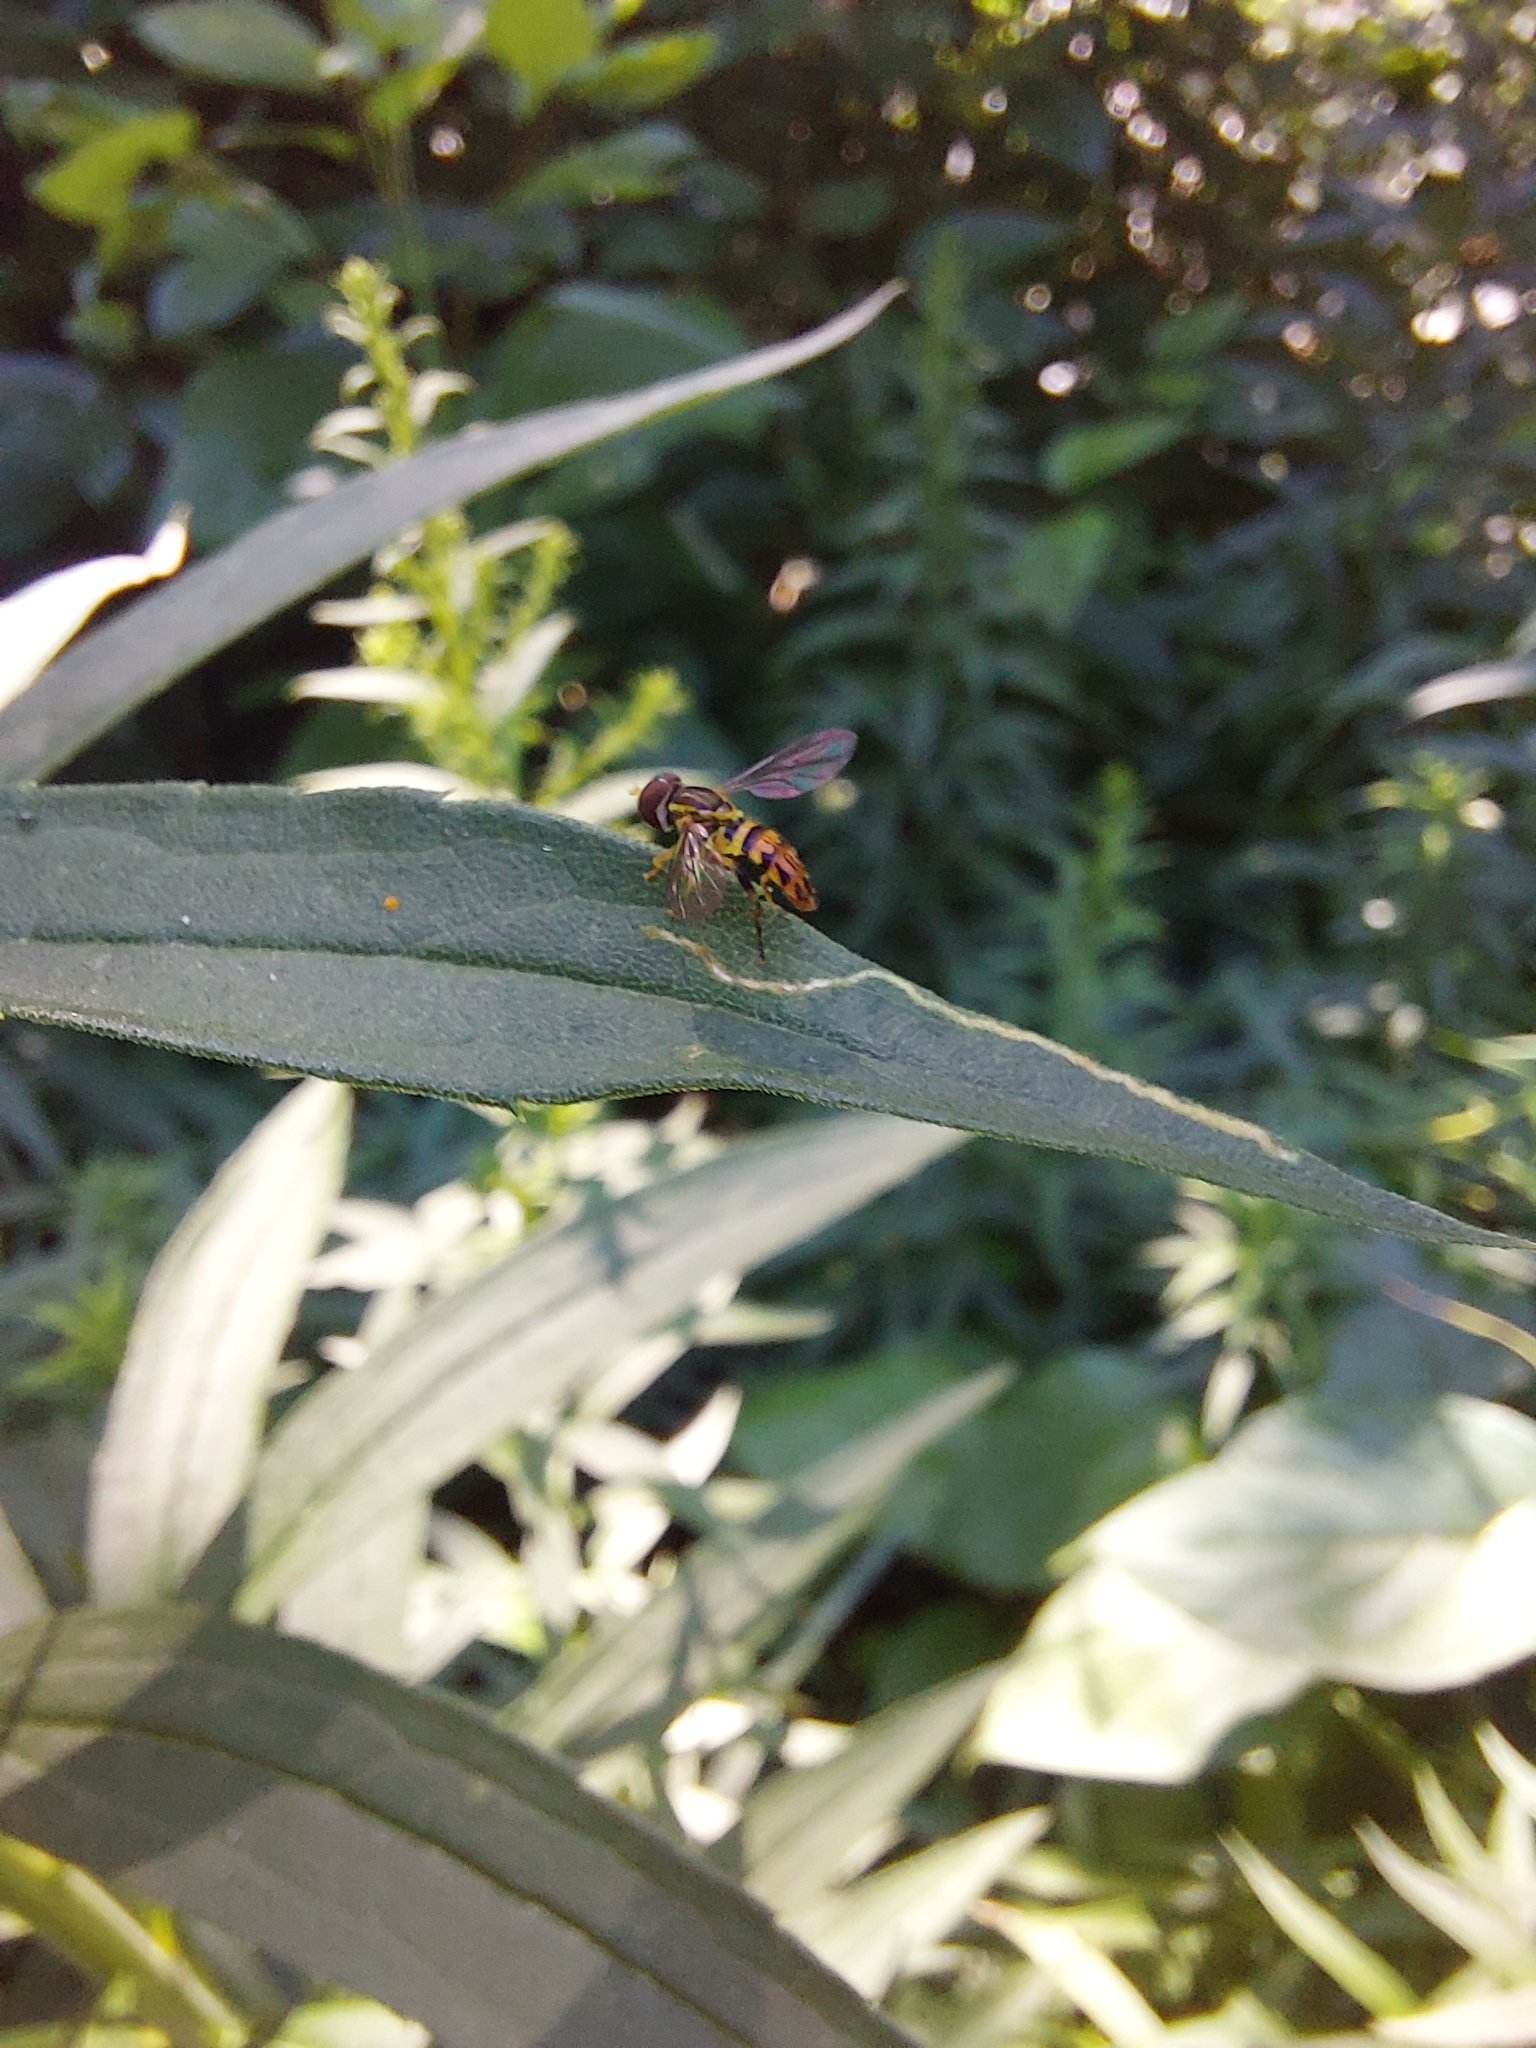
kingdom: Animalia
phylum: Arthropoda
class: Insecta
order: Diptera
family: Syrphidae
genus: Toxomerus
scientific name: Toxomerus geminatus
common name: Eastern calligrapher
